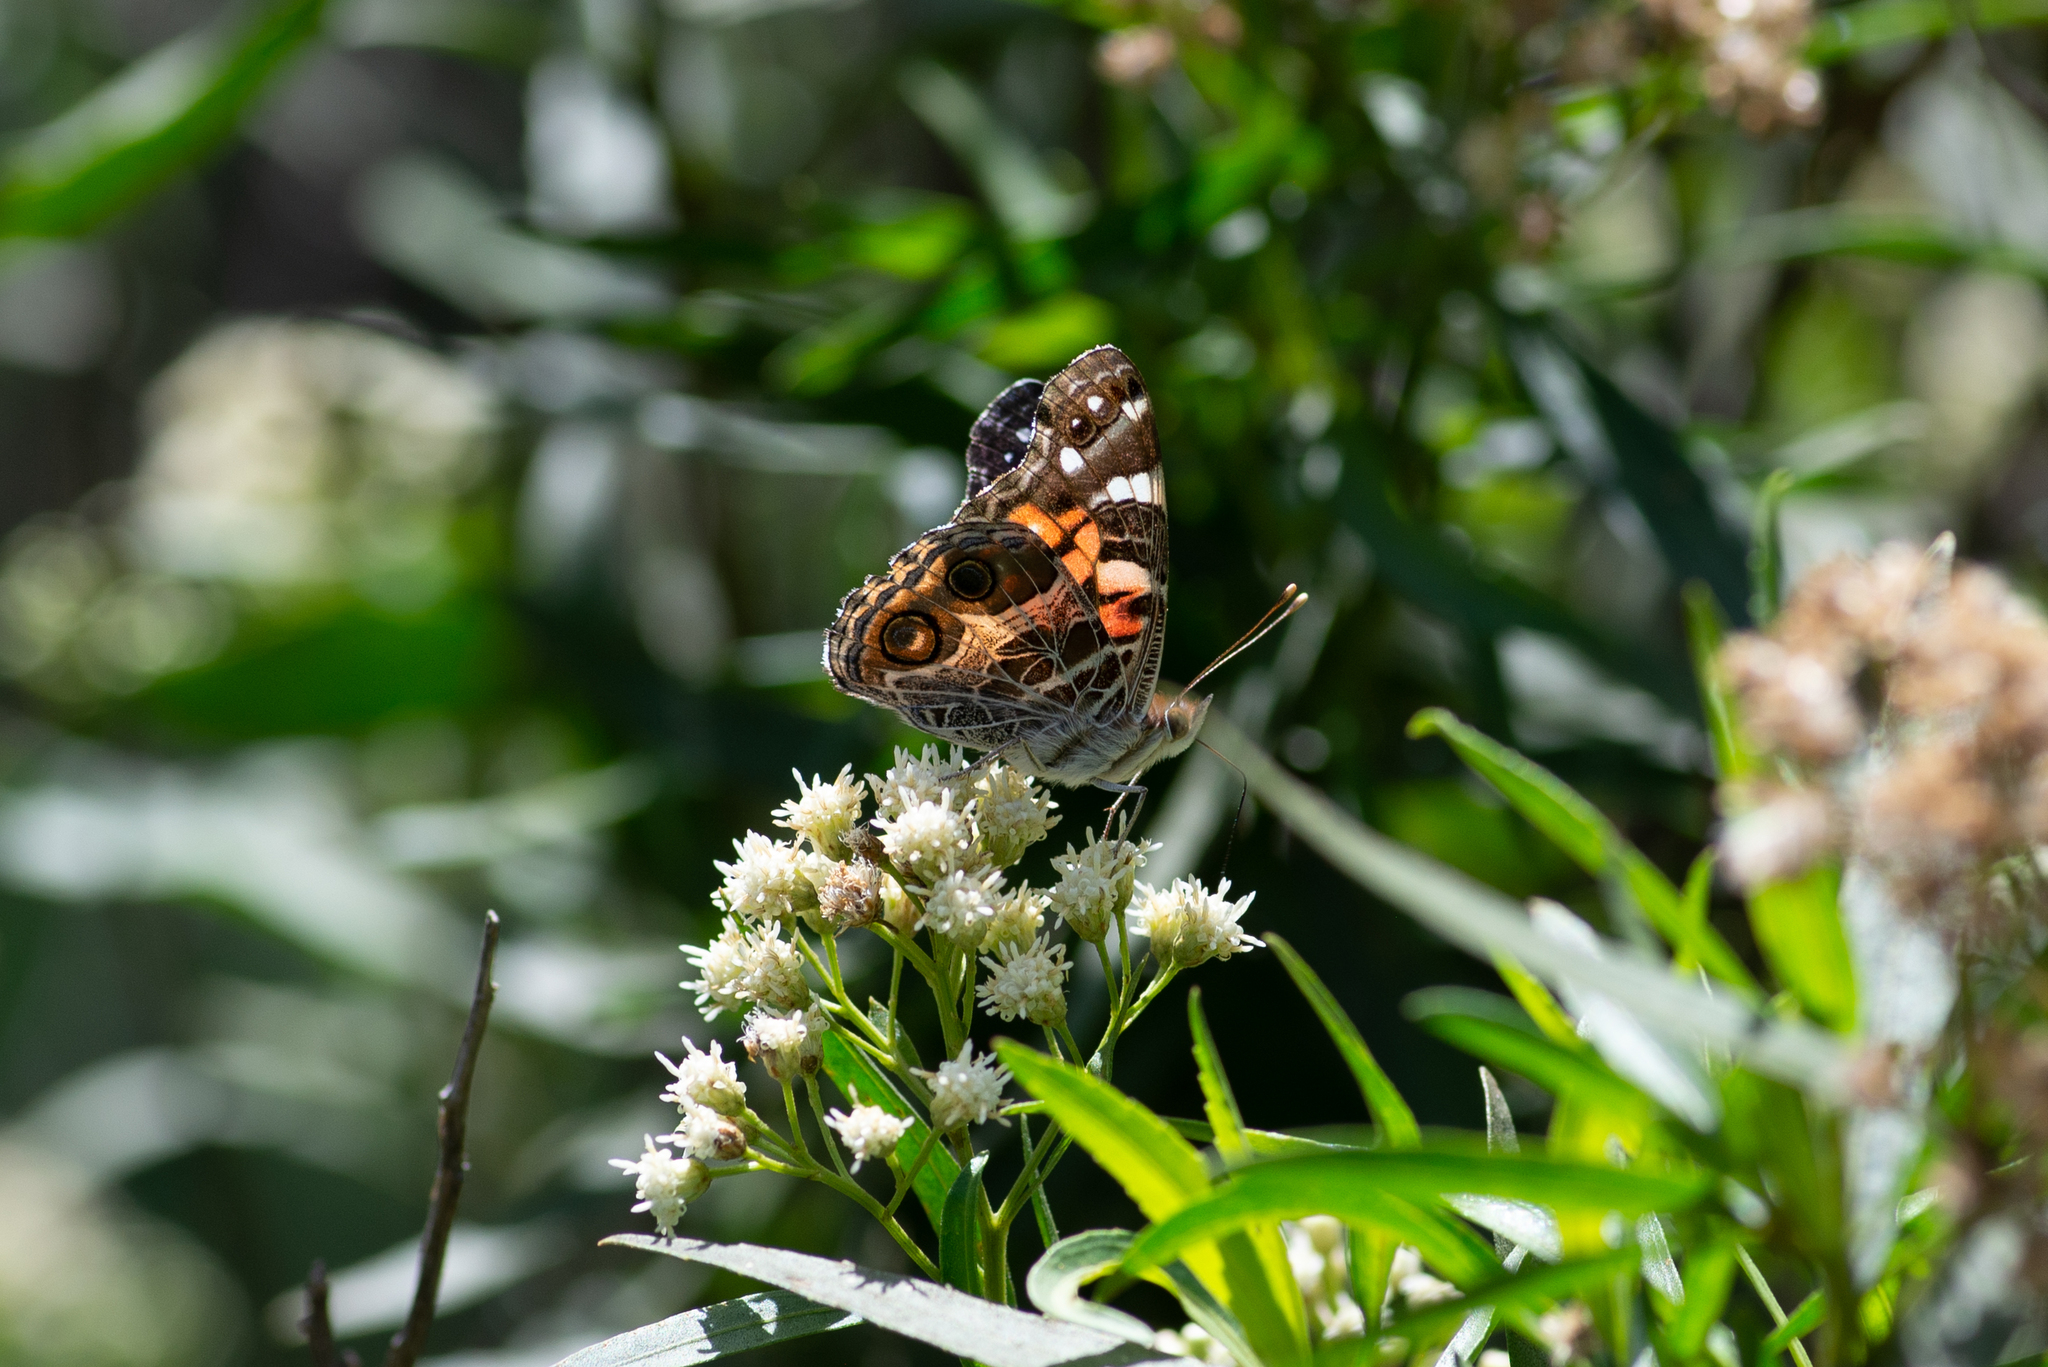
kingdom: Animalia
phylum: Arthropoda
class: Insecta
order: Lepidoptera
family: Nymphalidae
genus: Vanessa
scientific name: Vanessa virginiensis
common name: American lady
